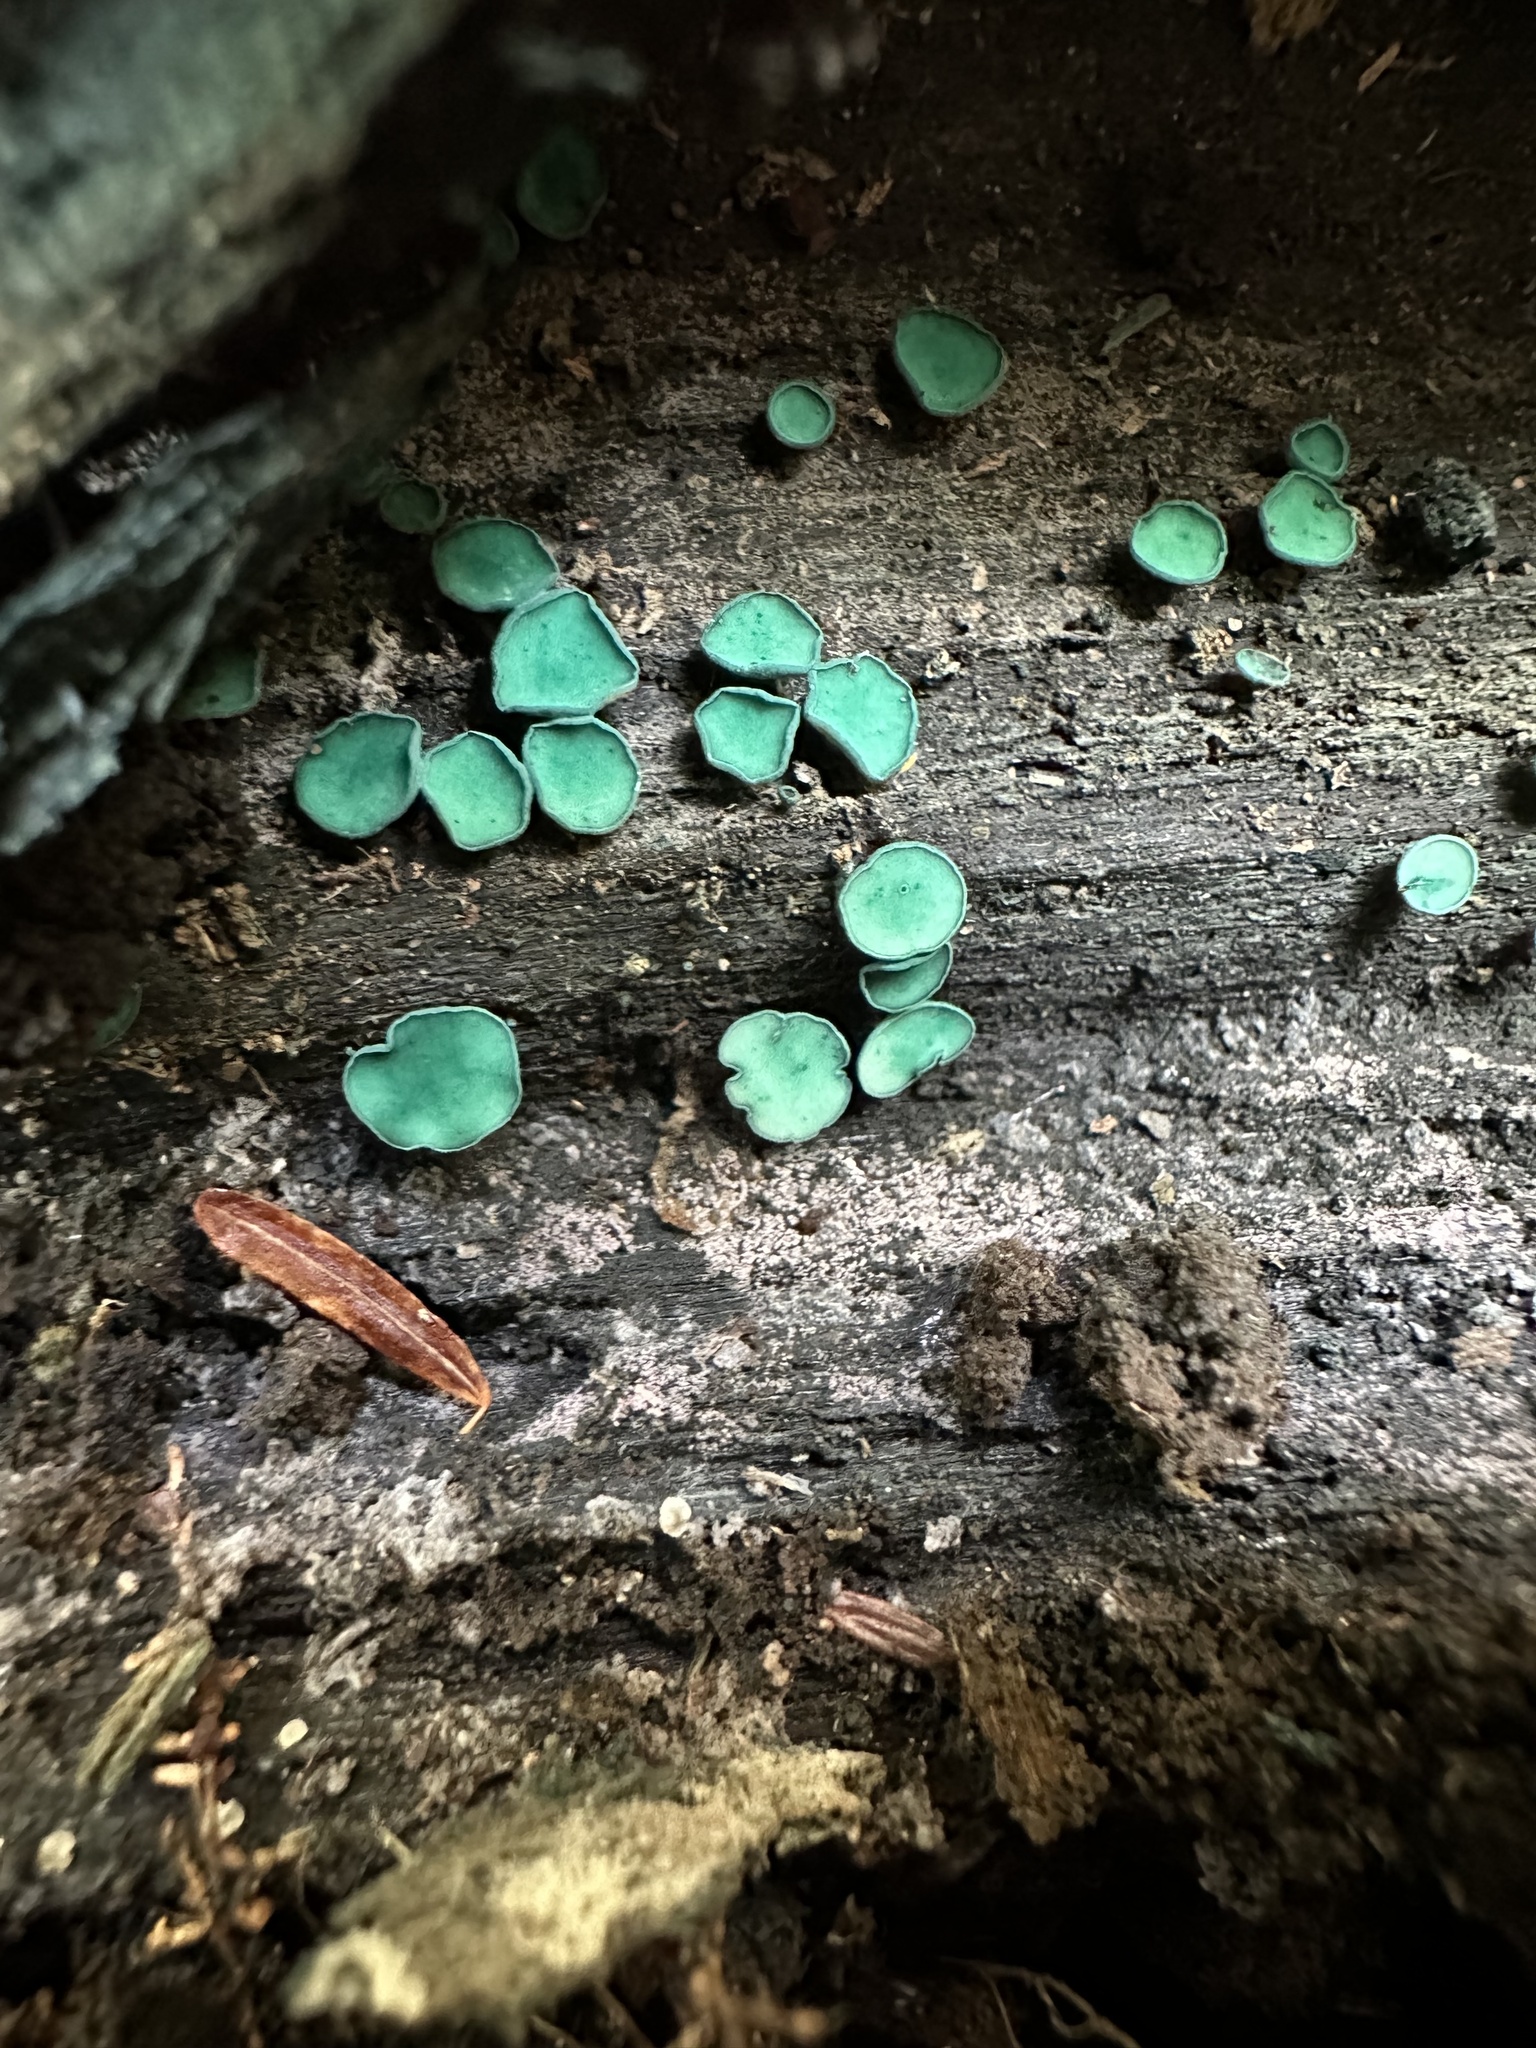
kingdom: Fungi
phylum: Ascomycota
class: Leotiomycetes
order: Helotiales
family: Chlorociboriaceae
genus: Chlorociboria
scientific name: Chlorociboria aeruginascens
